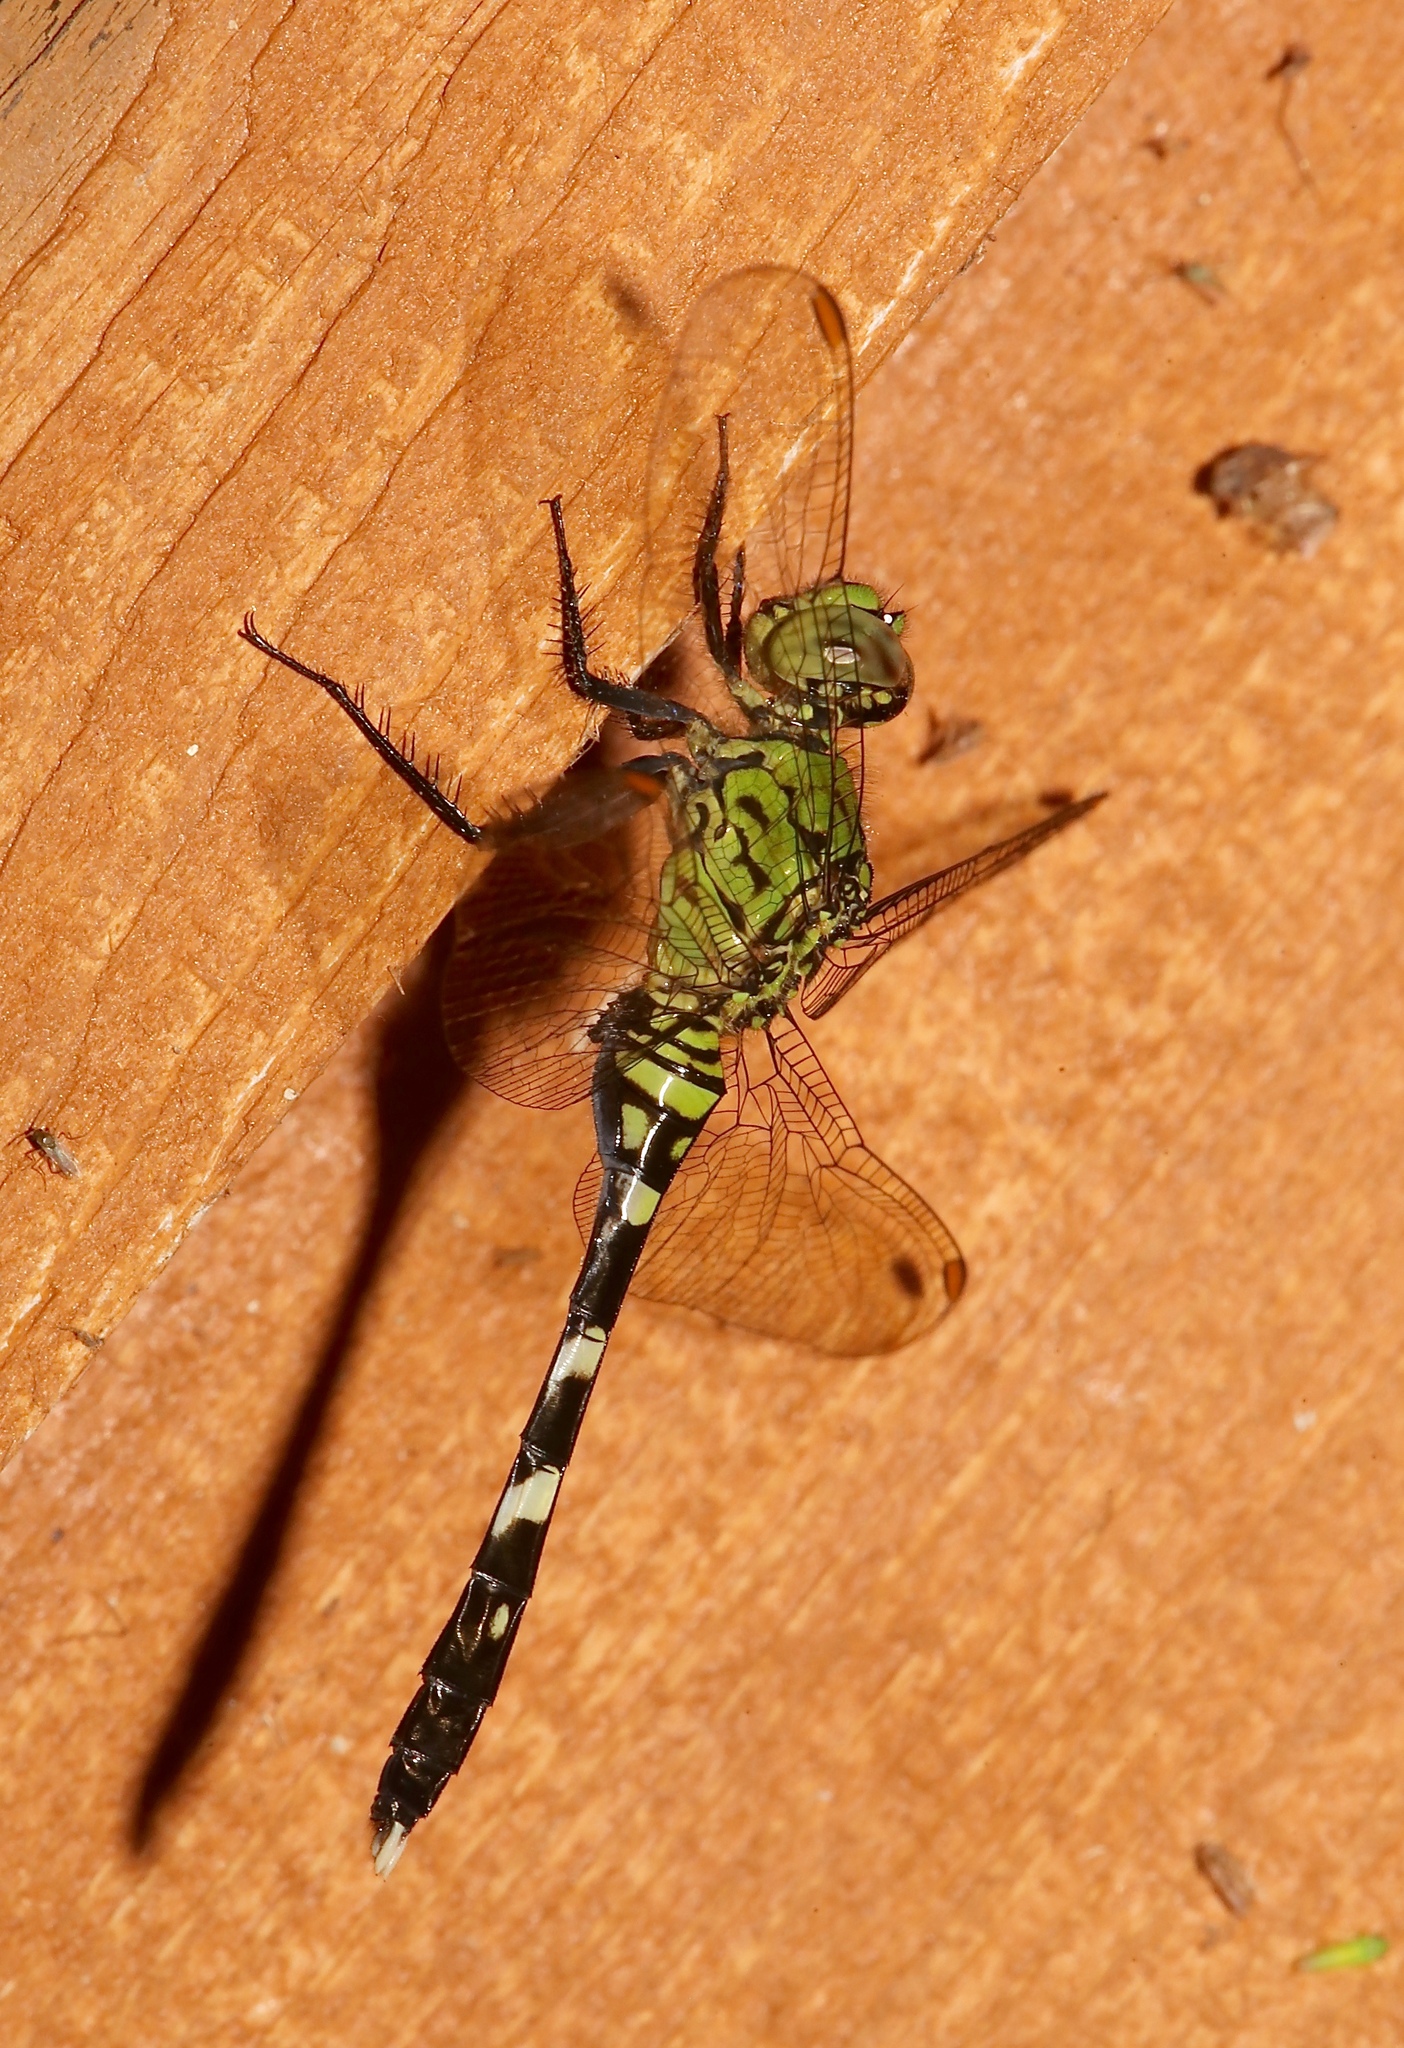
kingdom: Animalia
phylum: Arthropoda
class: Insecta
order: Odonata
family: Libellulidae
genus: Erythemis
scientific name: Erythemis simplicicollis
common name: Eastern pondhawk
